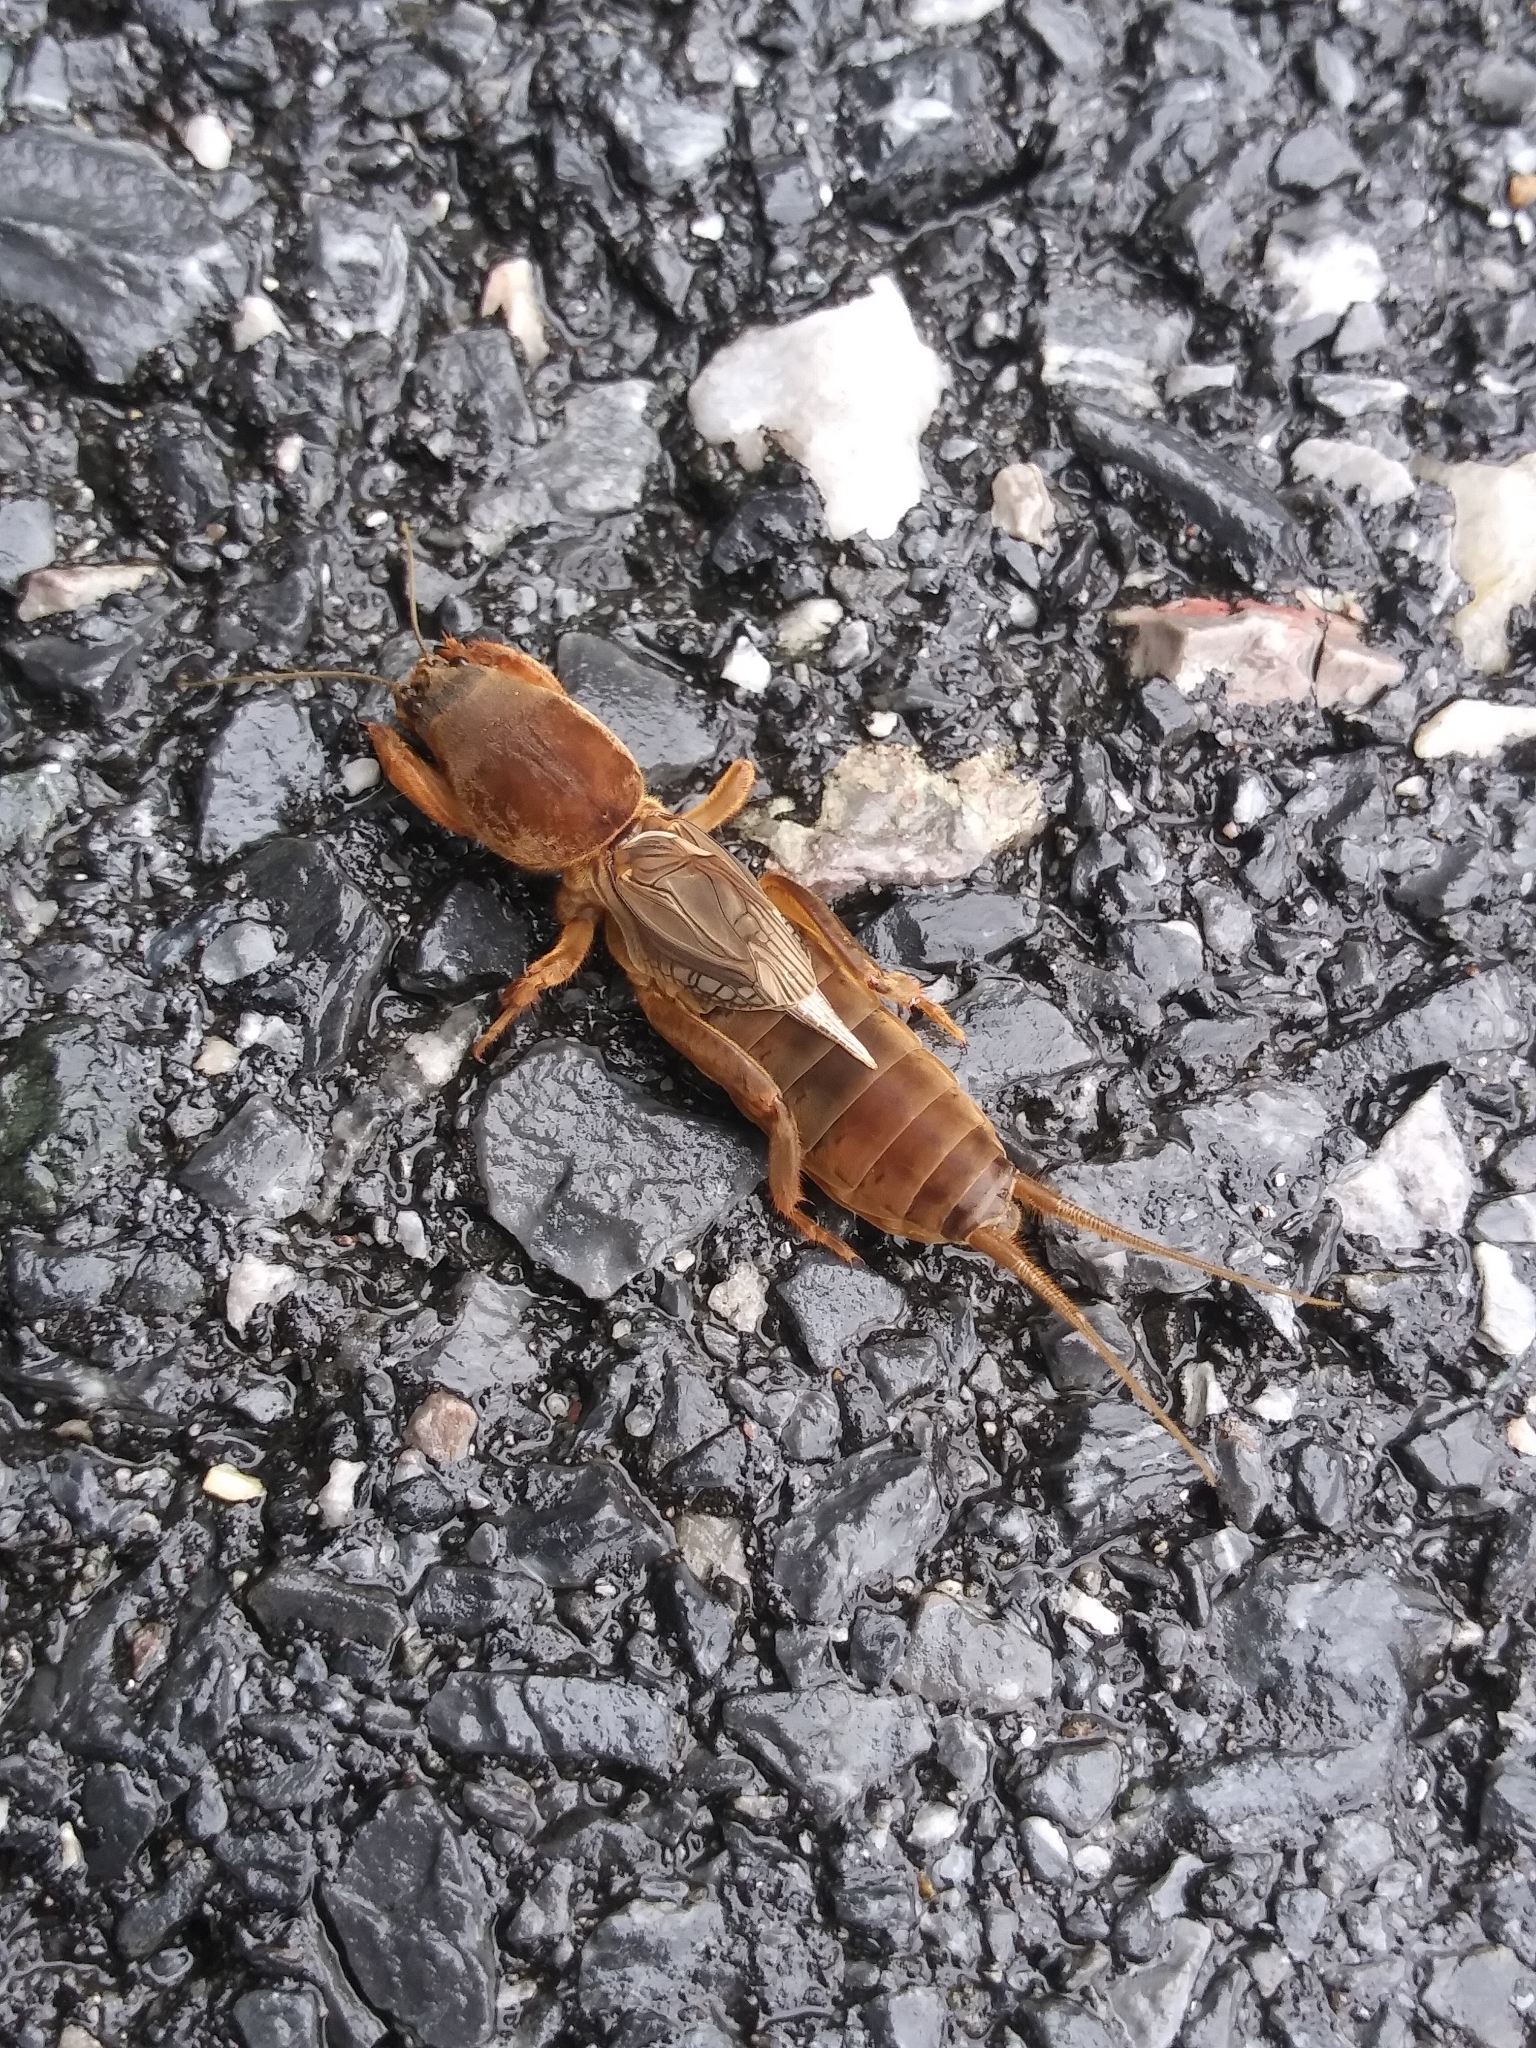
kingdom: Animalia
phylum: Arthropoda
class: Insecta
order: Orthoptera
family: Gryllotalpidae
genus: Neocurtilla
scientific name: Neocurtilla hexadactyla
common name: Northern mole cricket
